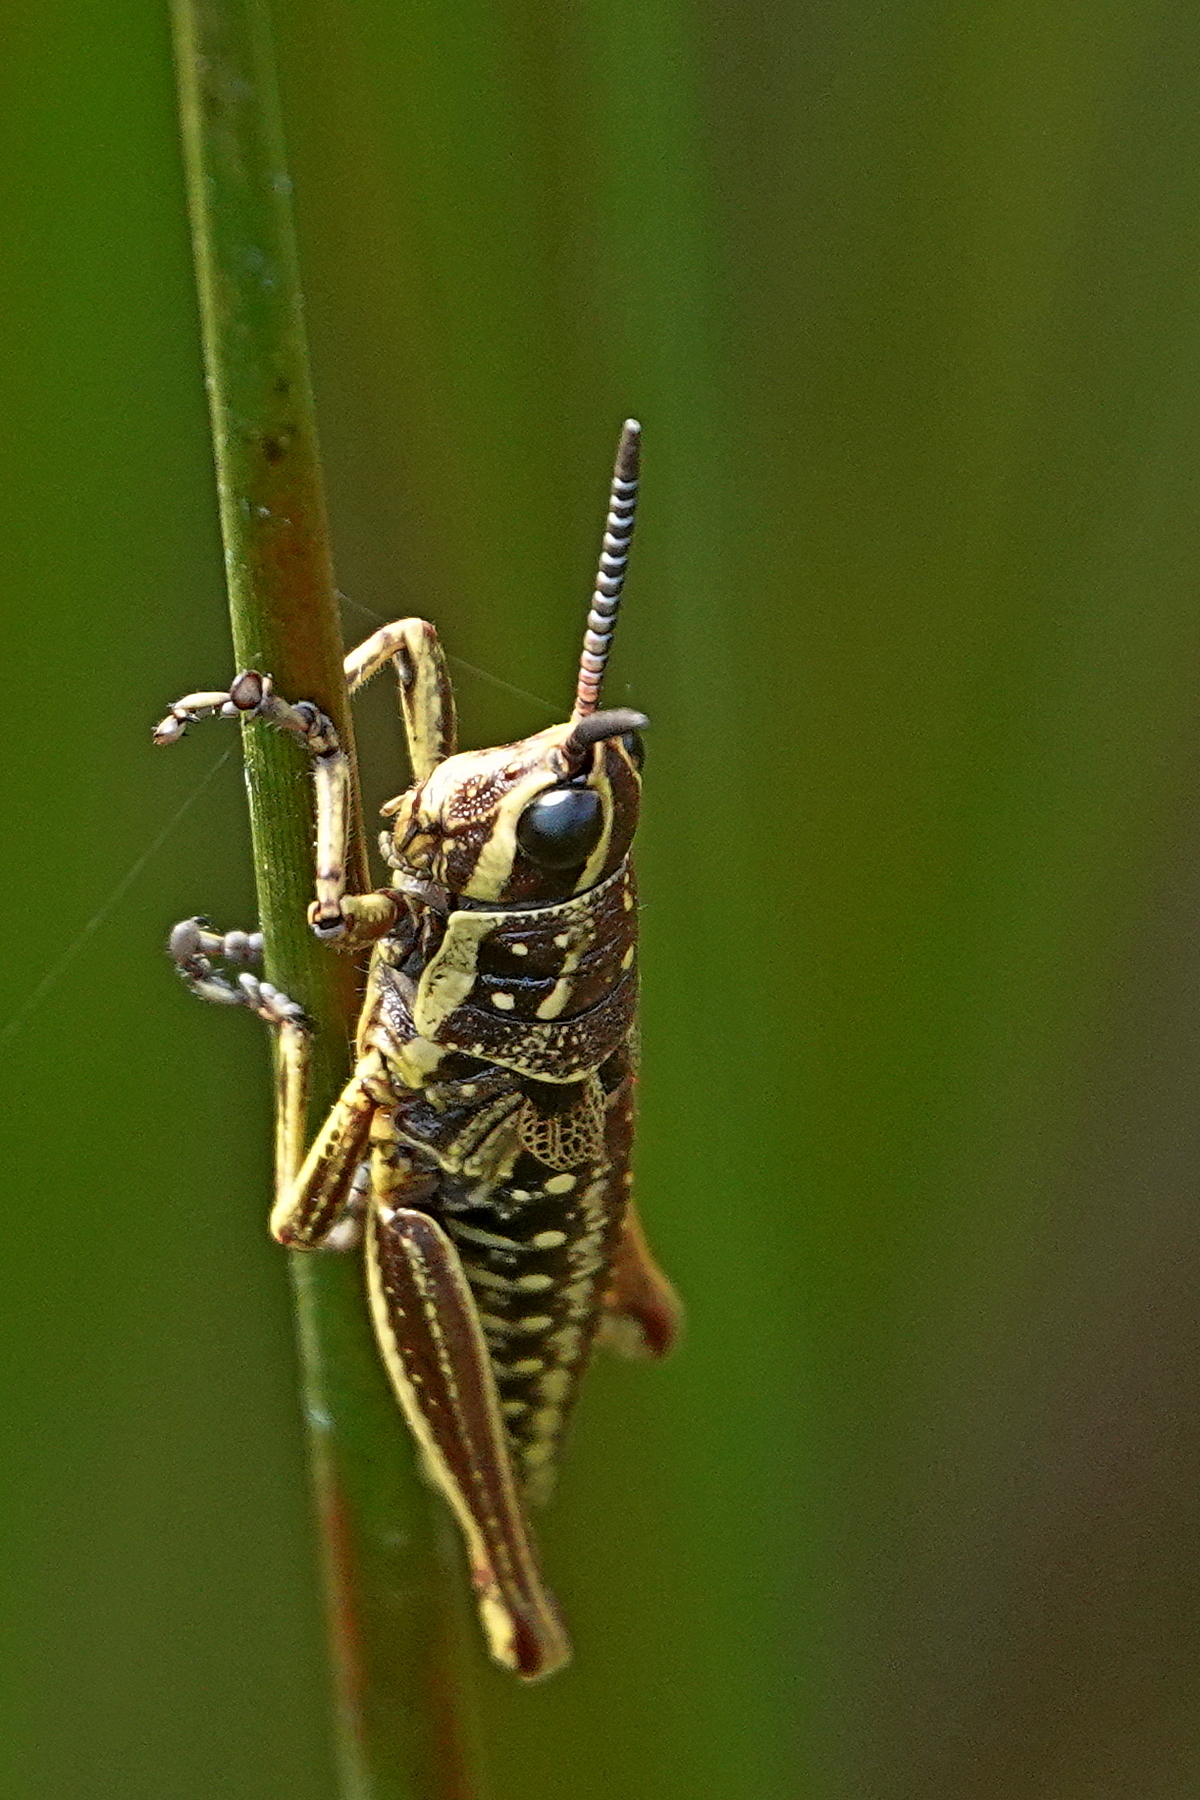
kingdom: Animalia
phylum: Arthropoda
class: Insecta
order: Orthoptera
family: Pyrgomorphidae
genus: Monistria
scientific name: Monistria concinna
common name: Southern pyrgomorph
